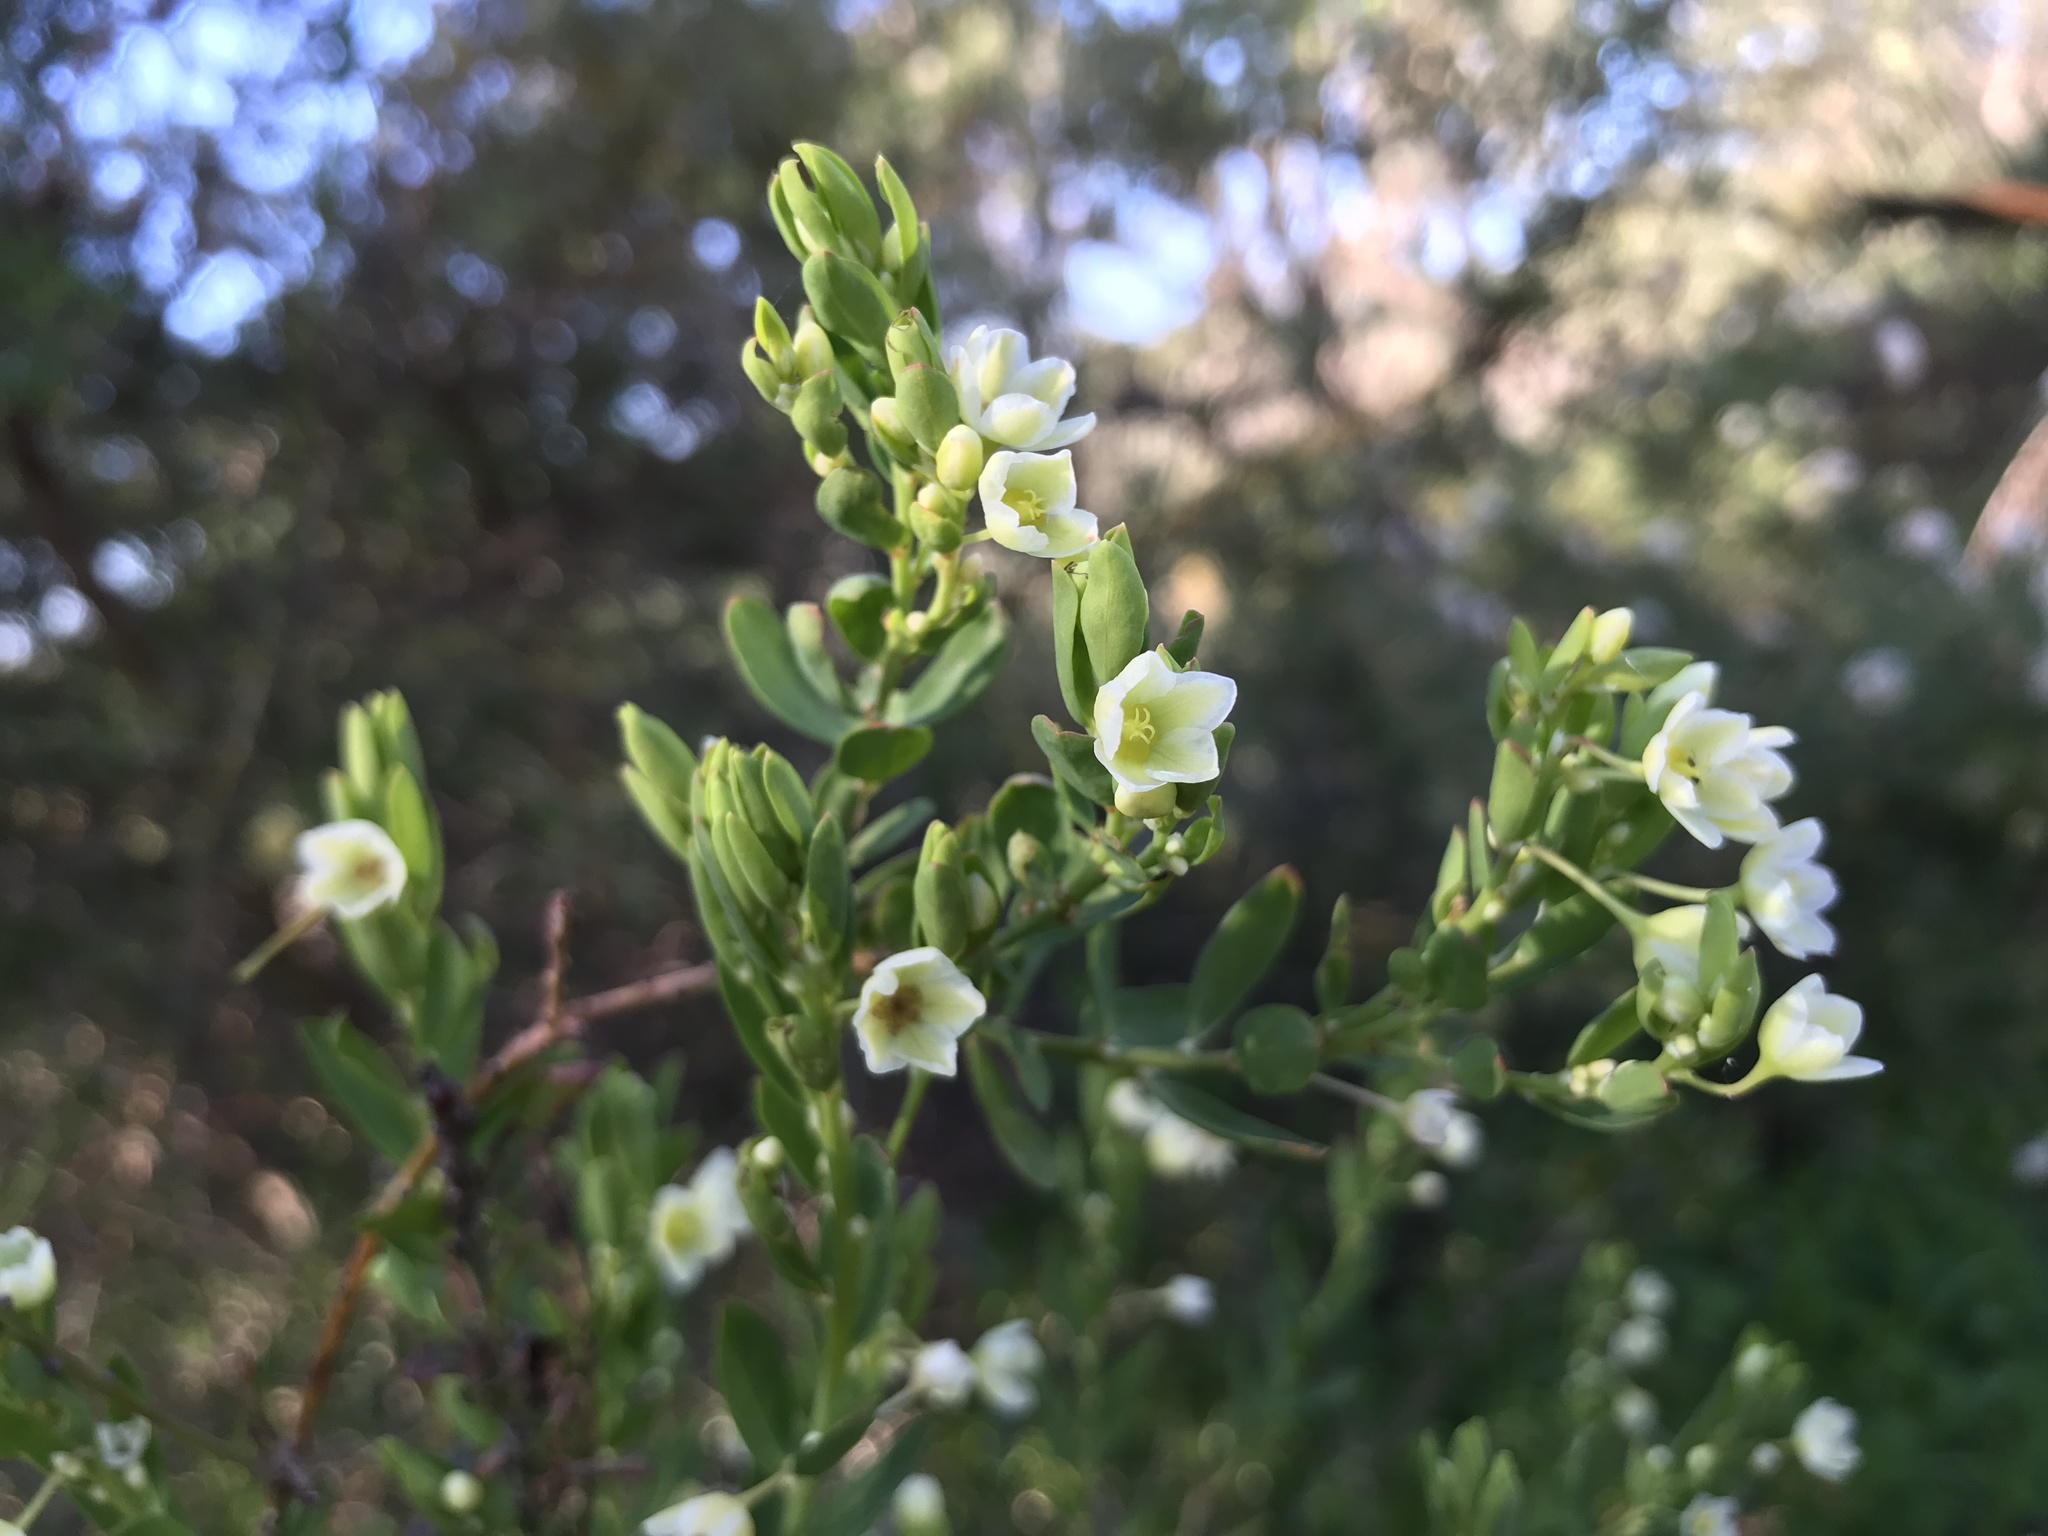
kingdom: Plantae
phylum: Tracheophyta
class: Magnoliopsida
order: Malpighiales
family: Phyllanthaceae
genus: Phyllanthus
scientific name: Phyllanthus calycinus
